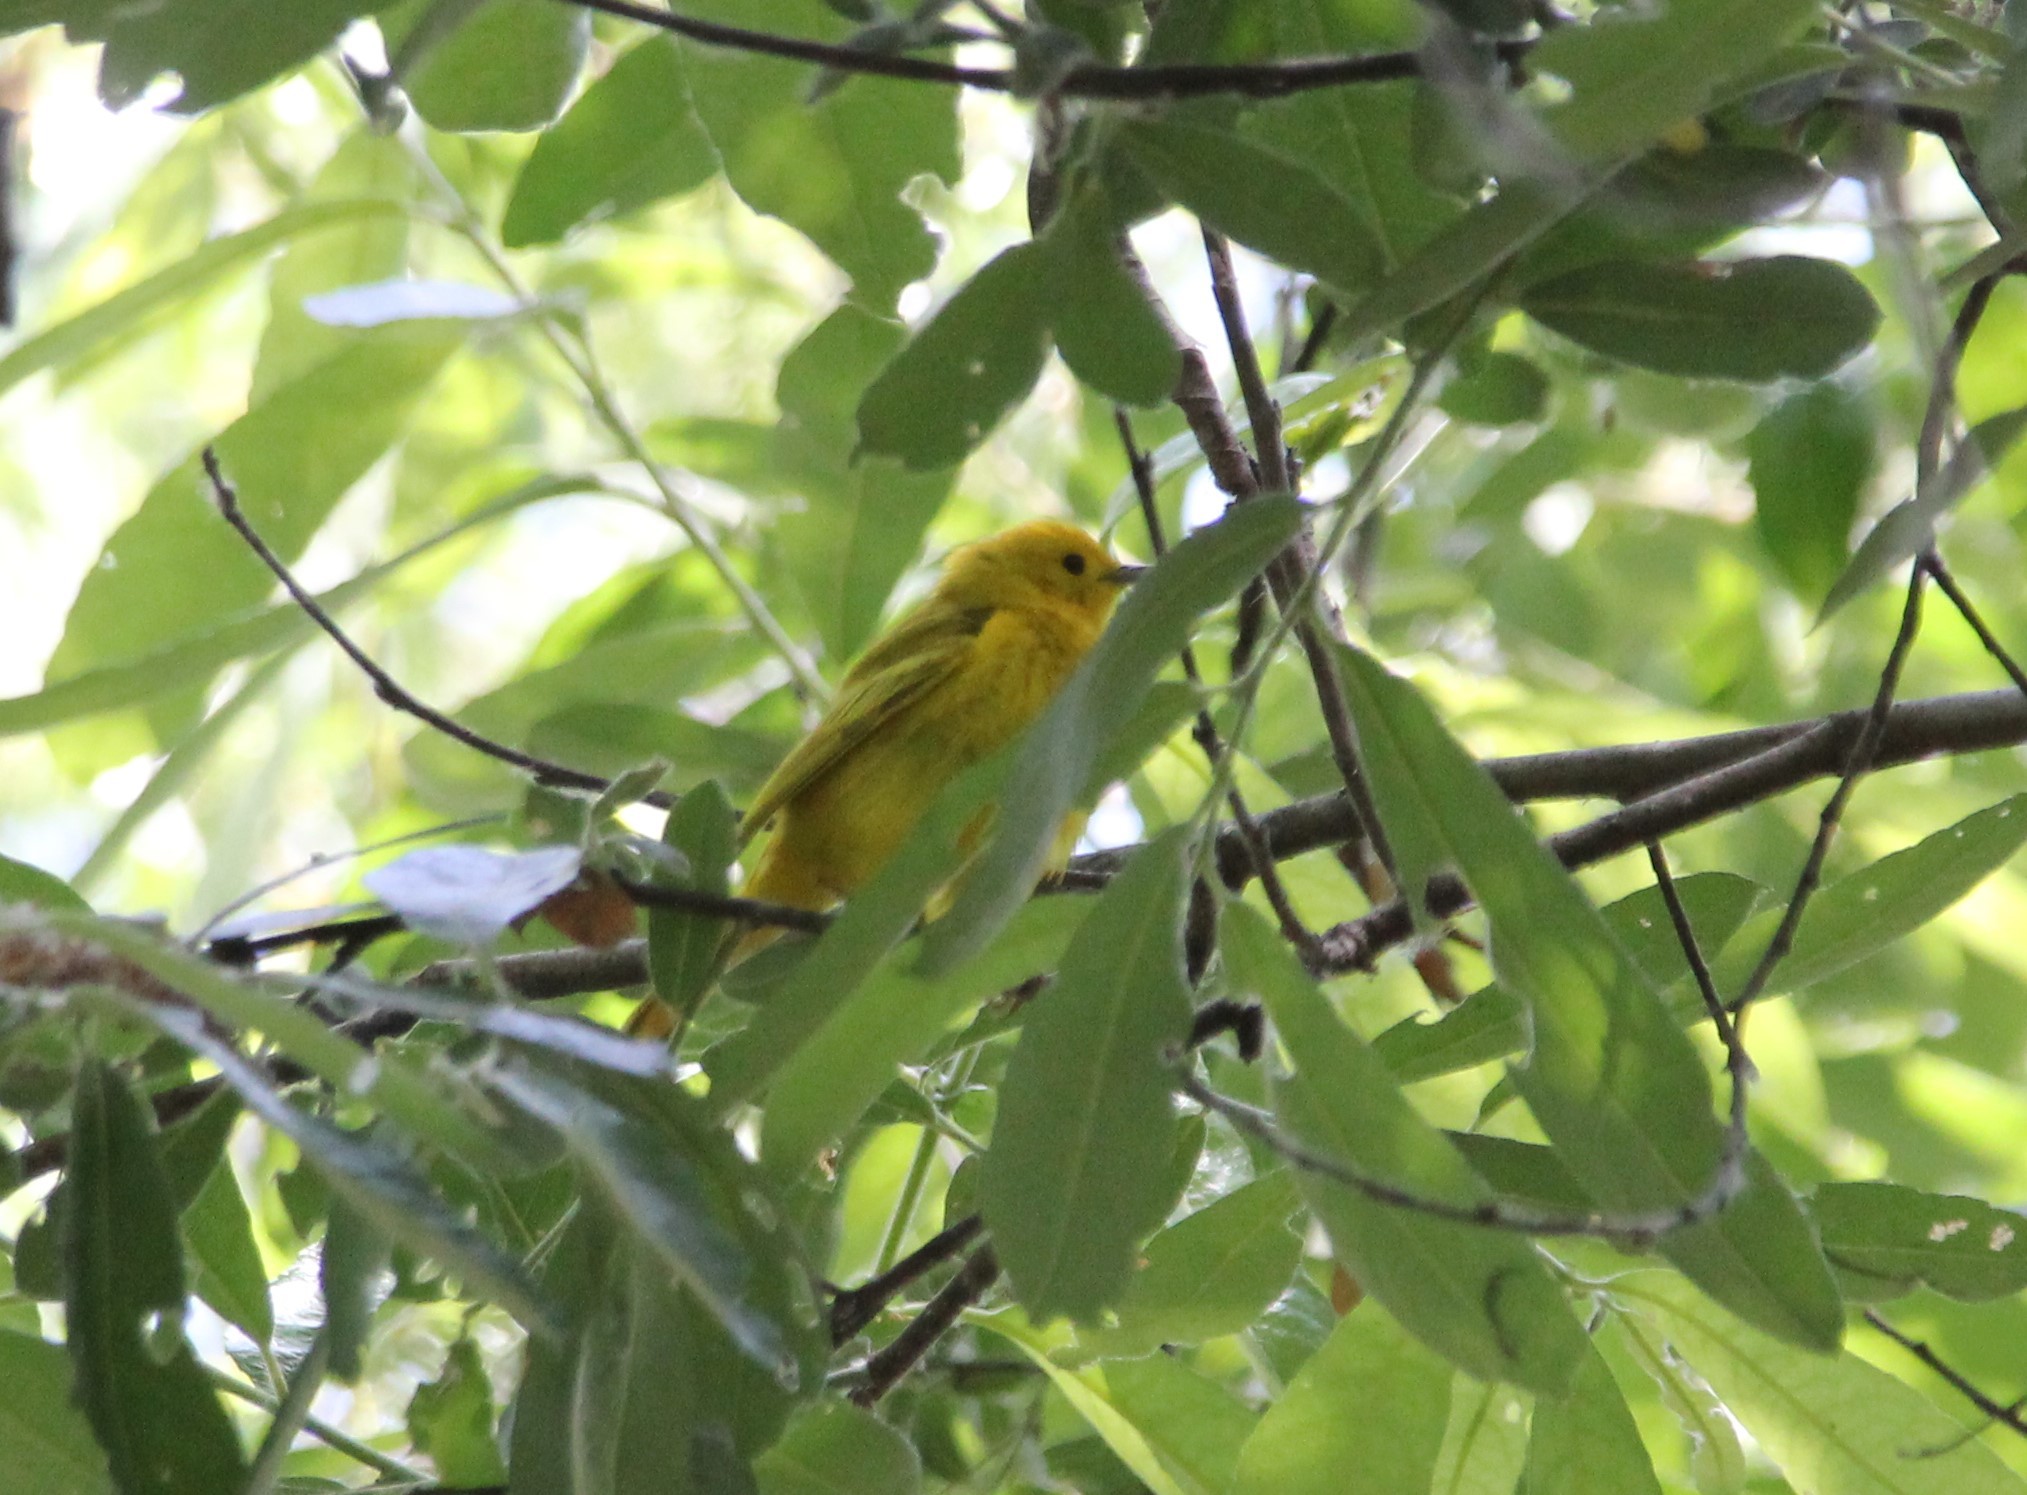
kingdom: Animalia
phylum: Chordata
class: Aves
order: Passeriformes
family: Parulidae
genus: Setophaga
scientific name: Setophaga petechia
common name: Yellow warbler
